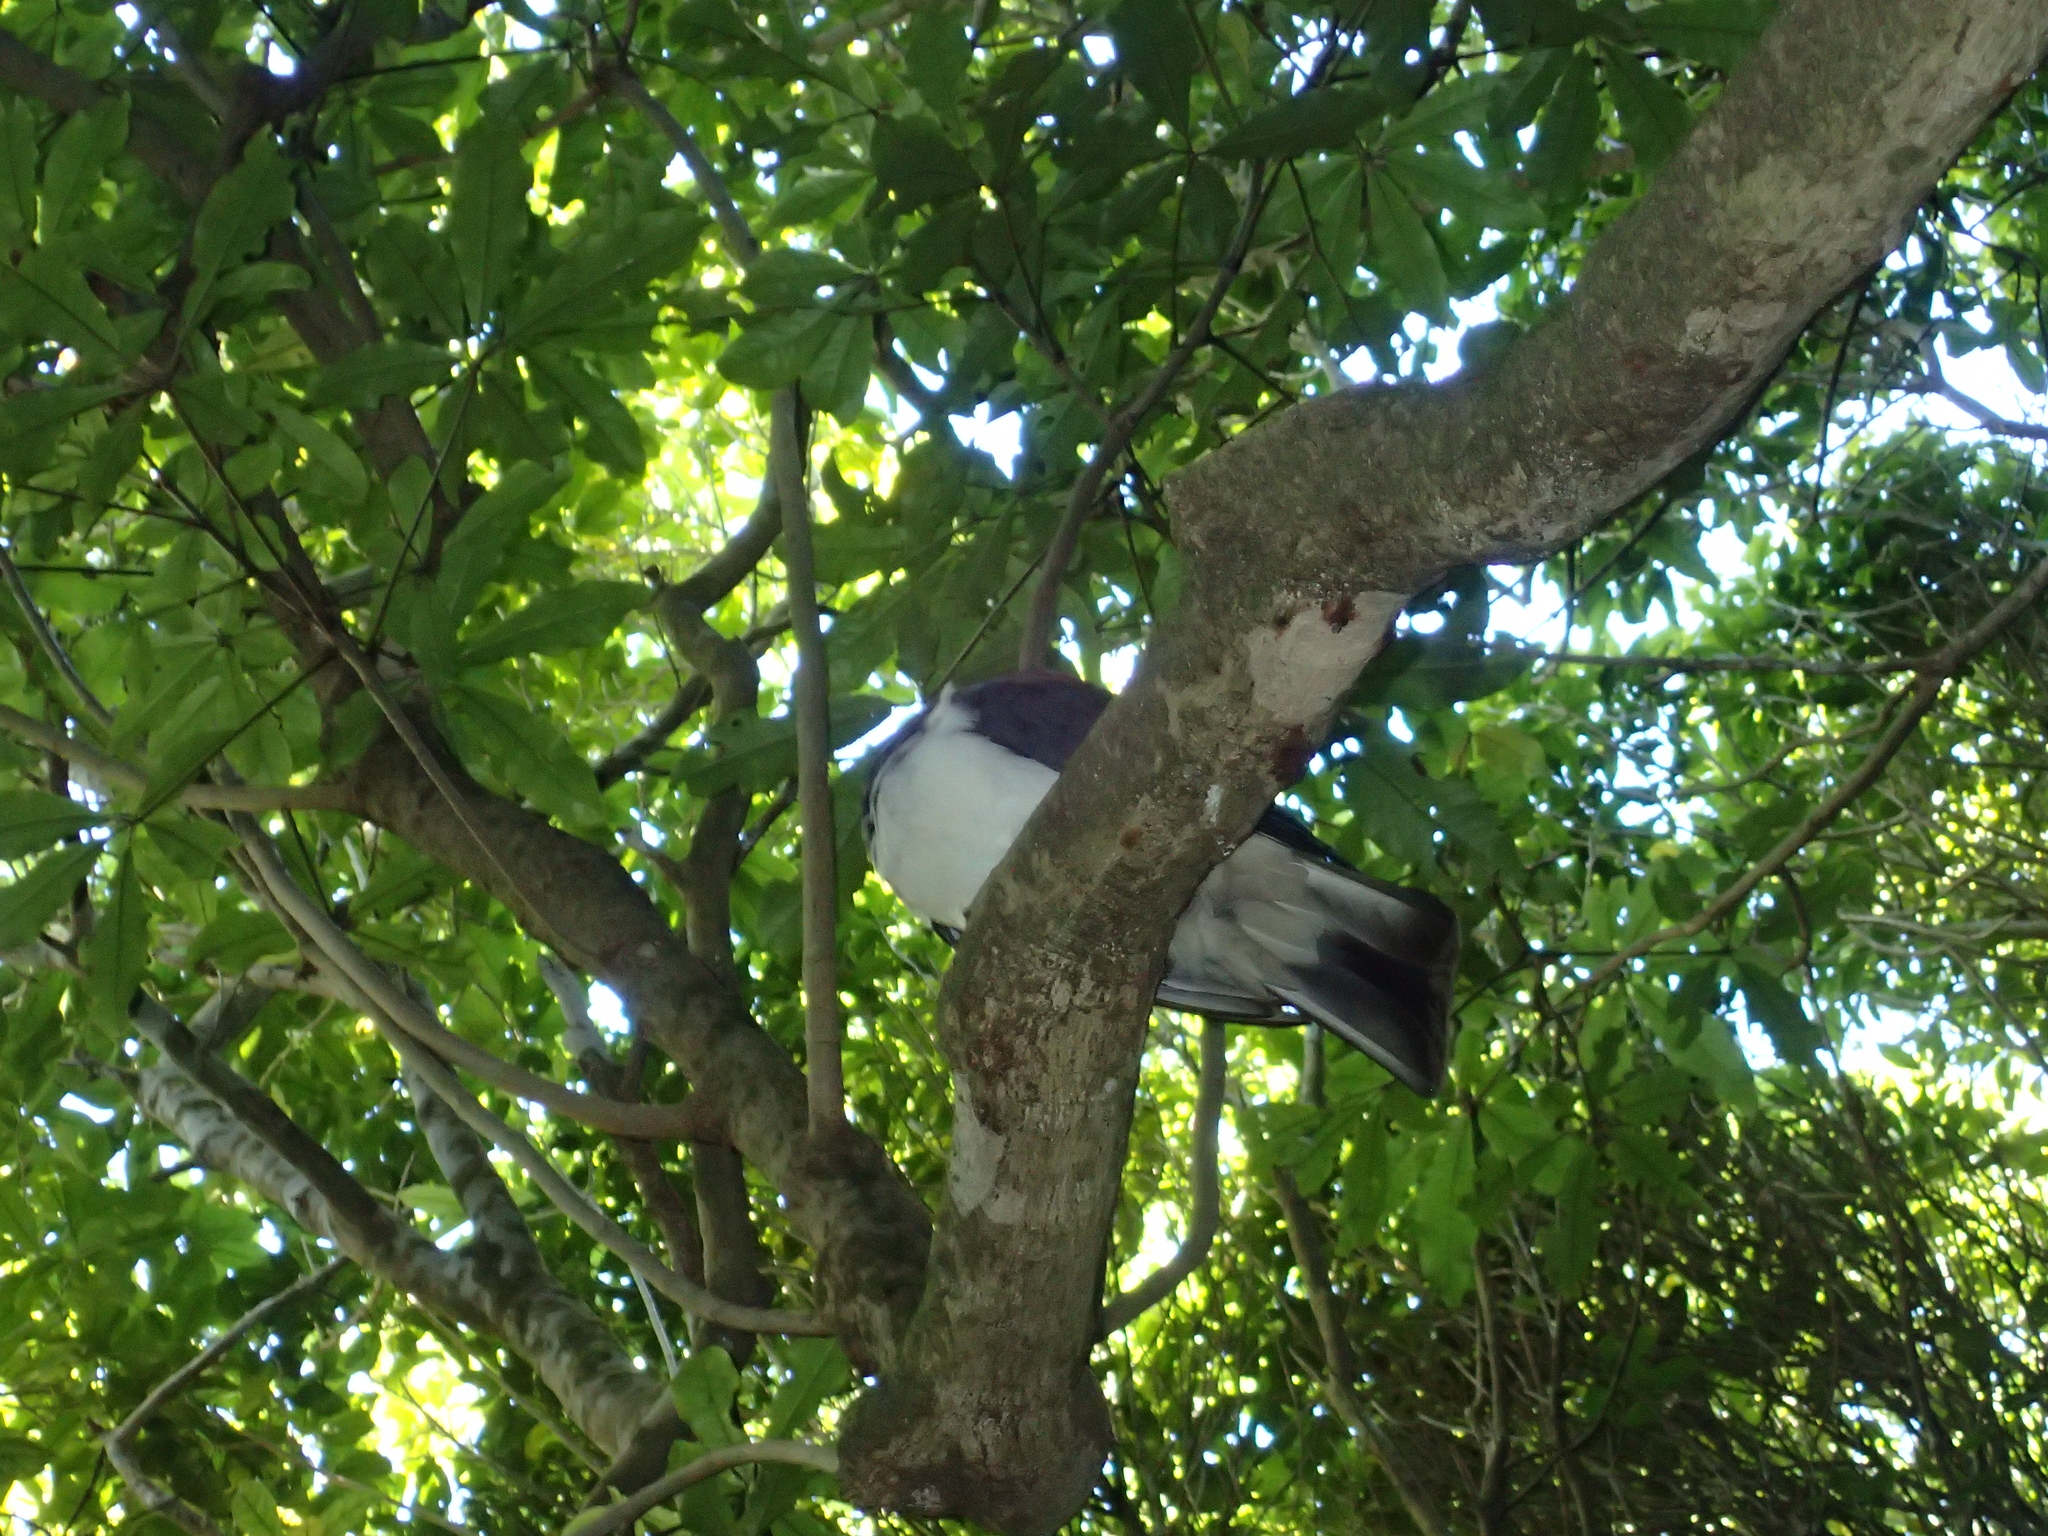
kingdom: Animalia
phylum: Chordata
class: Aves
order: Columbiformes
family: Columbidae
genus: Hemiphaga
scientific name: Hemiphaga novaeseelandiae
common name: New zealand pigeon
